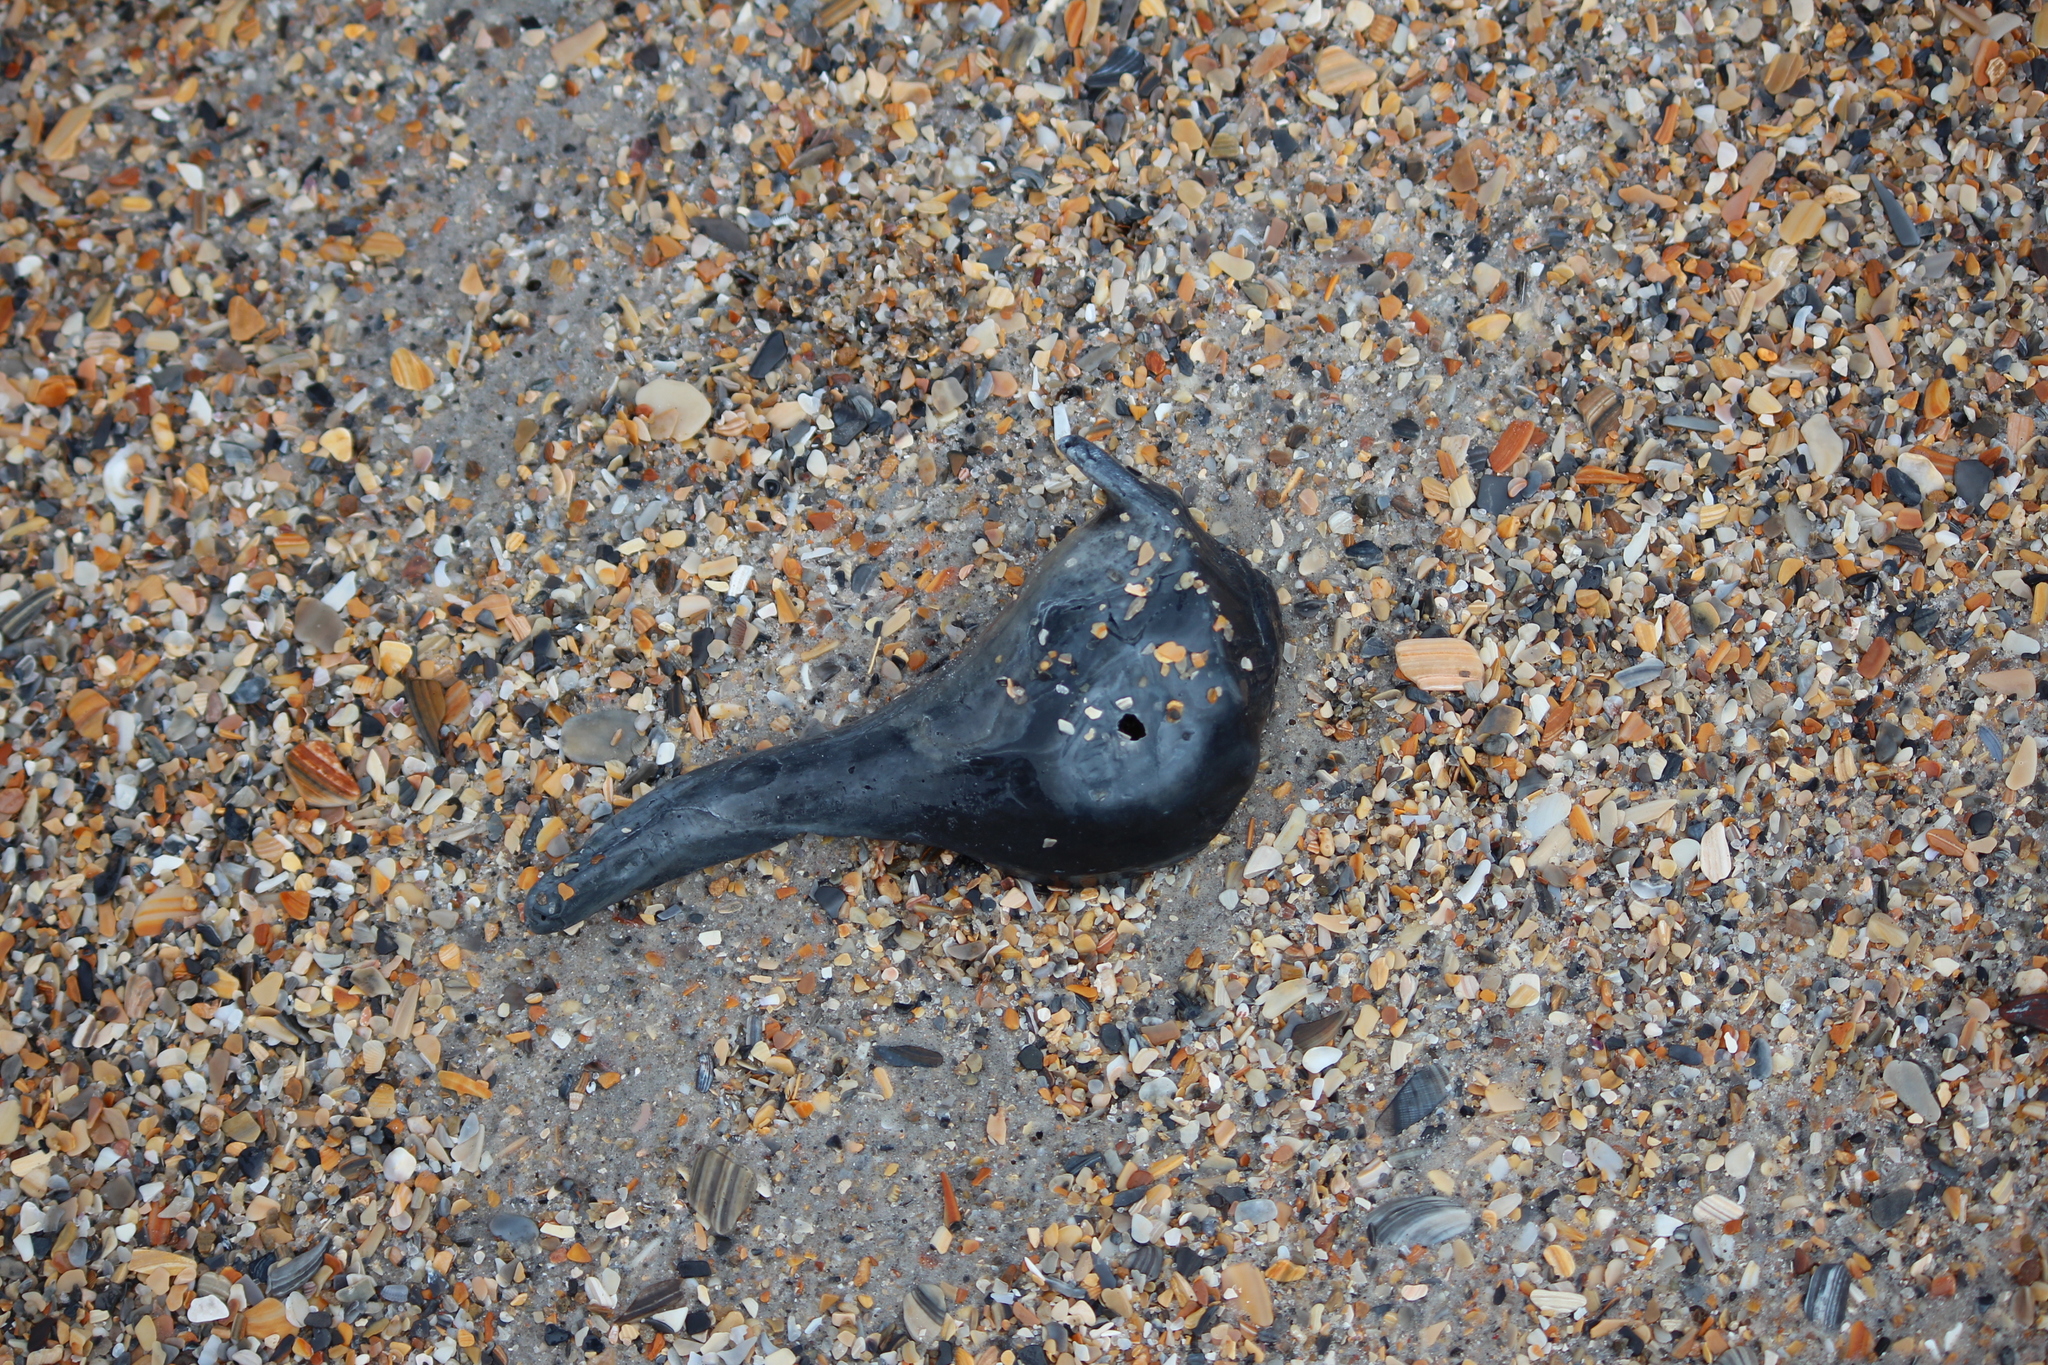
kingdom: Animalia
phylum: Mollusca
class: Gastropoda
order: Neogastropoda
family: Busyconidae
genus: Sinistrofulgur
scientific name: Sinistrofulgur sinistrum
